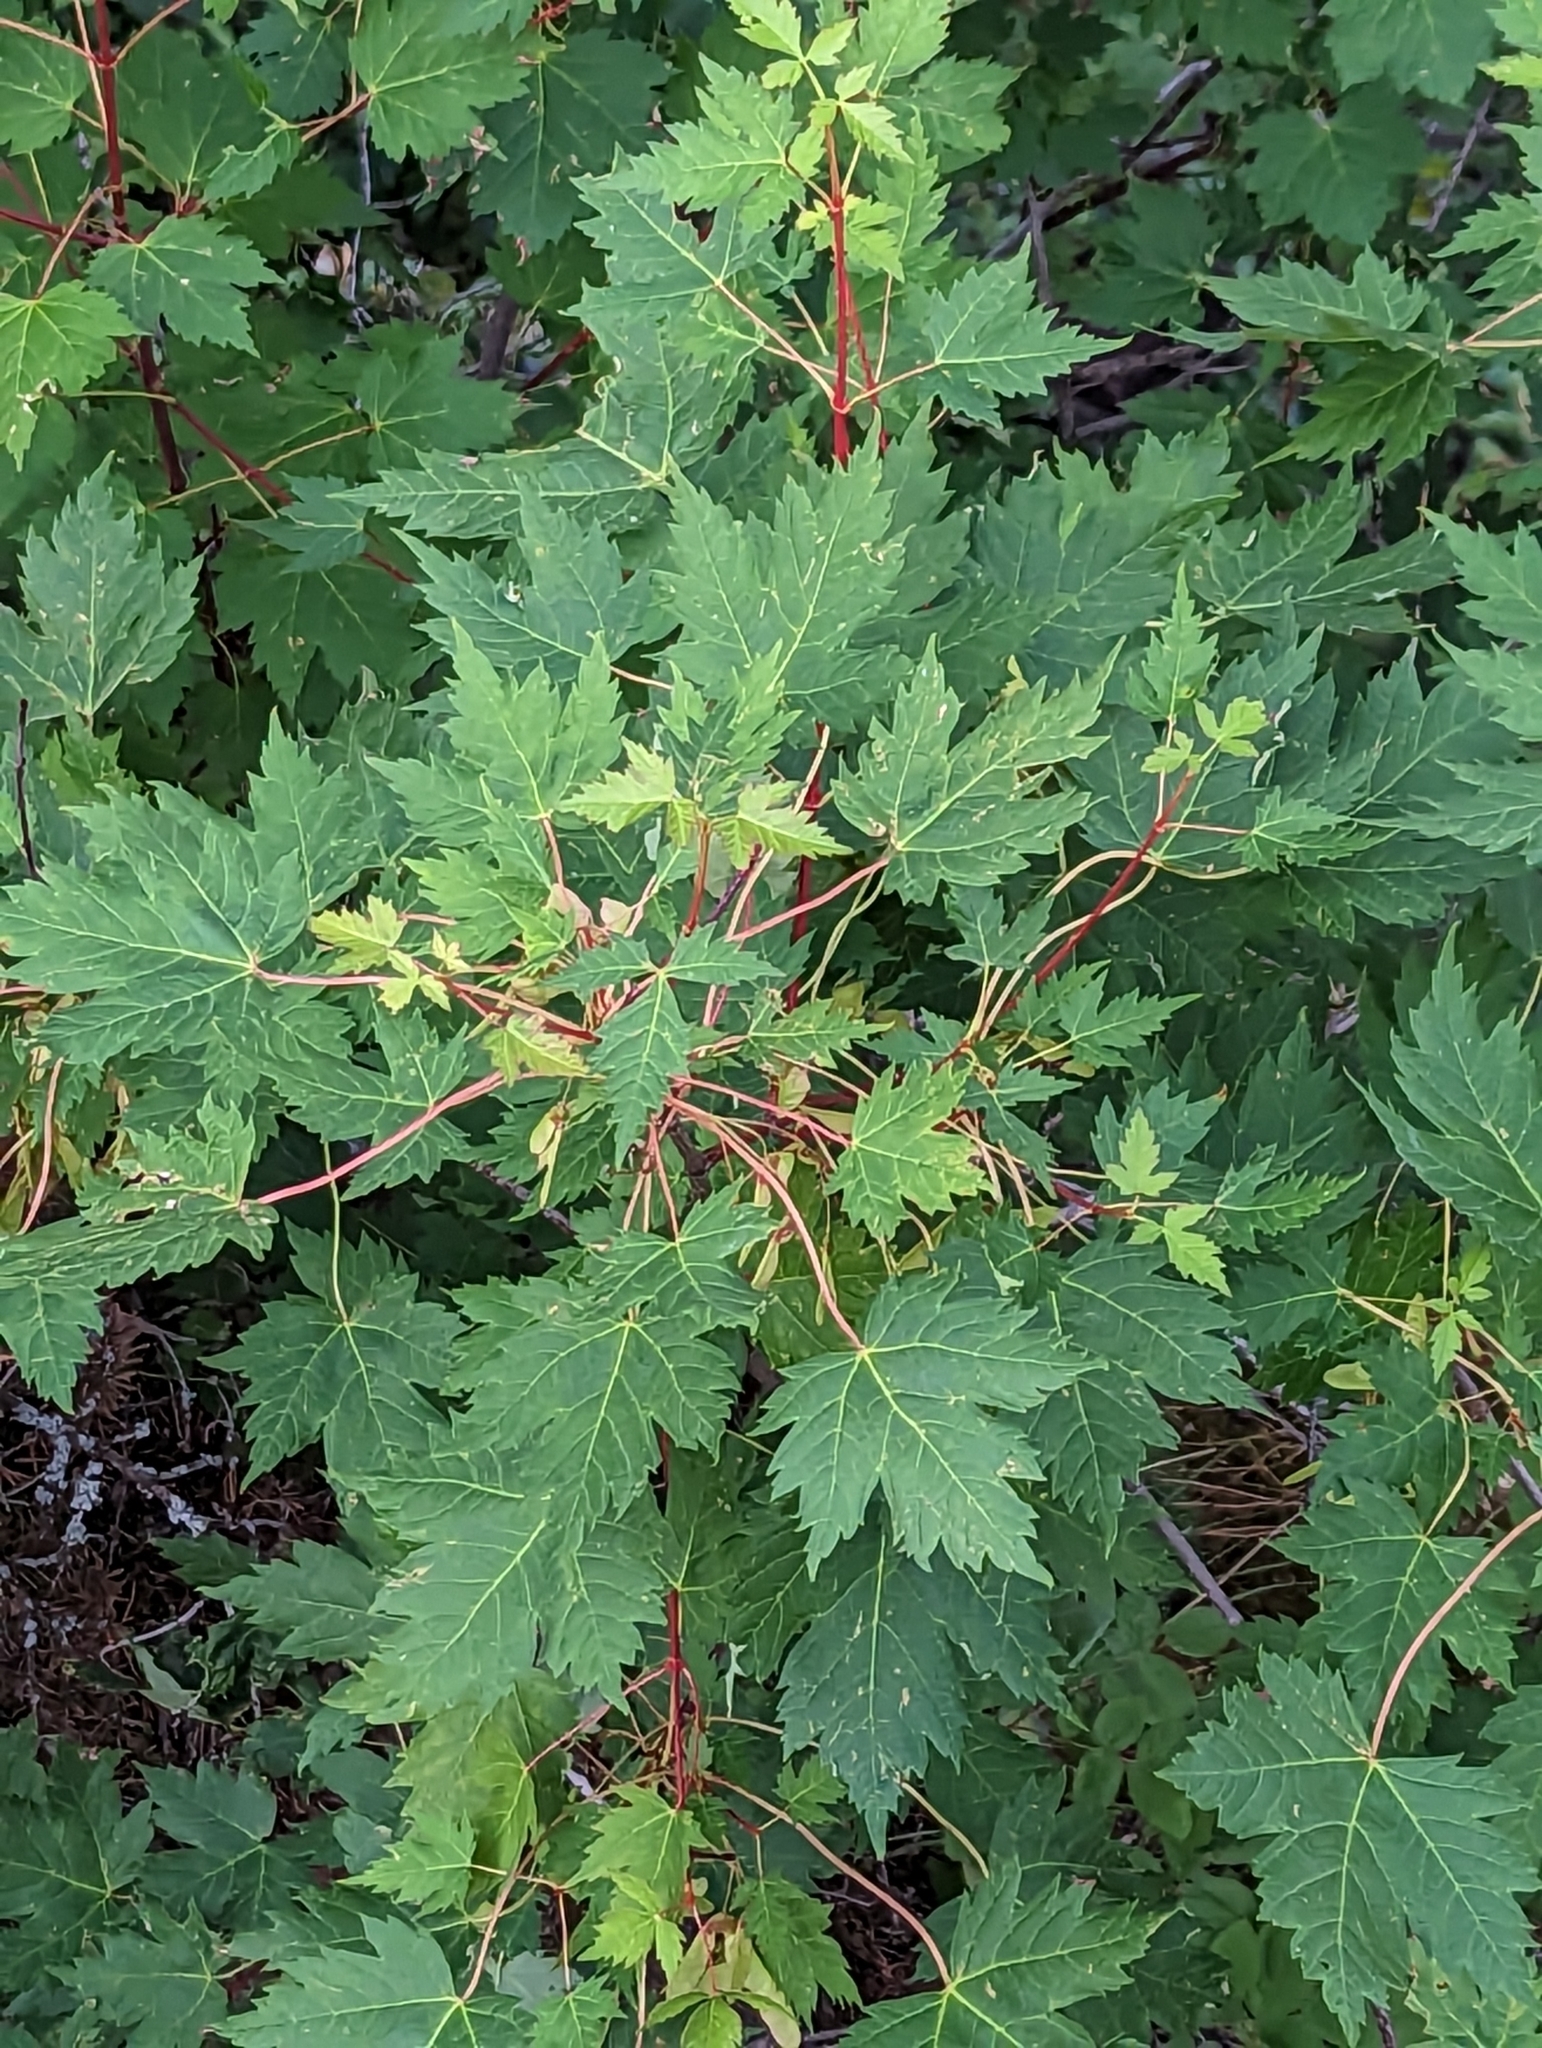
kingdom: Plantae
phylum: Tracheophyta
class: Magnoliopsida
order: Sapindales
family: Sapindaceae
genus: Acer
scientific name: Acer glabrum
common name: Rocky mountain maple
